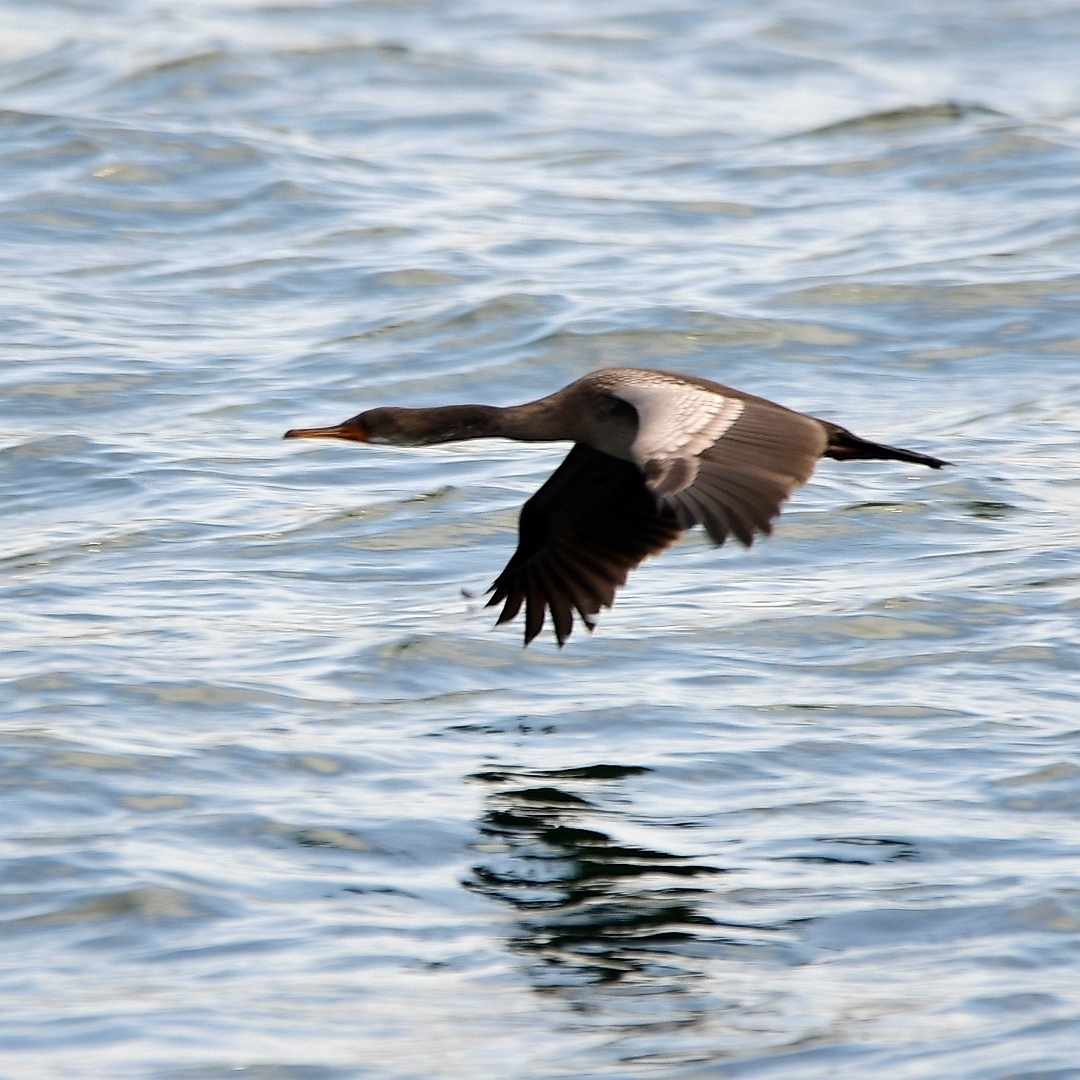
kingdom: Animalia
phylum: Chordata
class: Aves
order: Suliformes
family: Phalacrocoracidae
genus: Phalacrocorax
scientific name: Phalacrocorax gaimardi
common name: Red-legged cormorant
